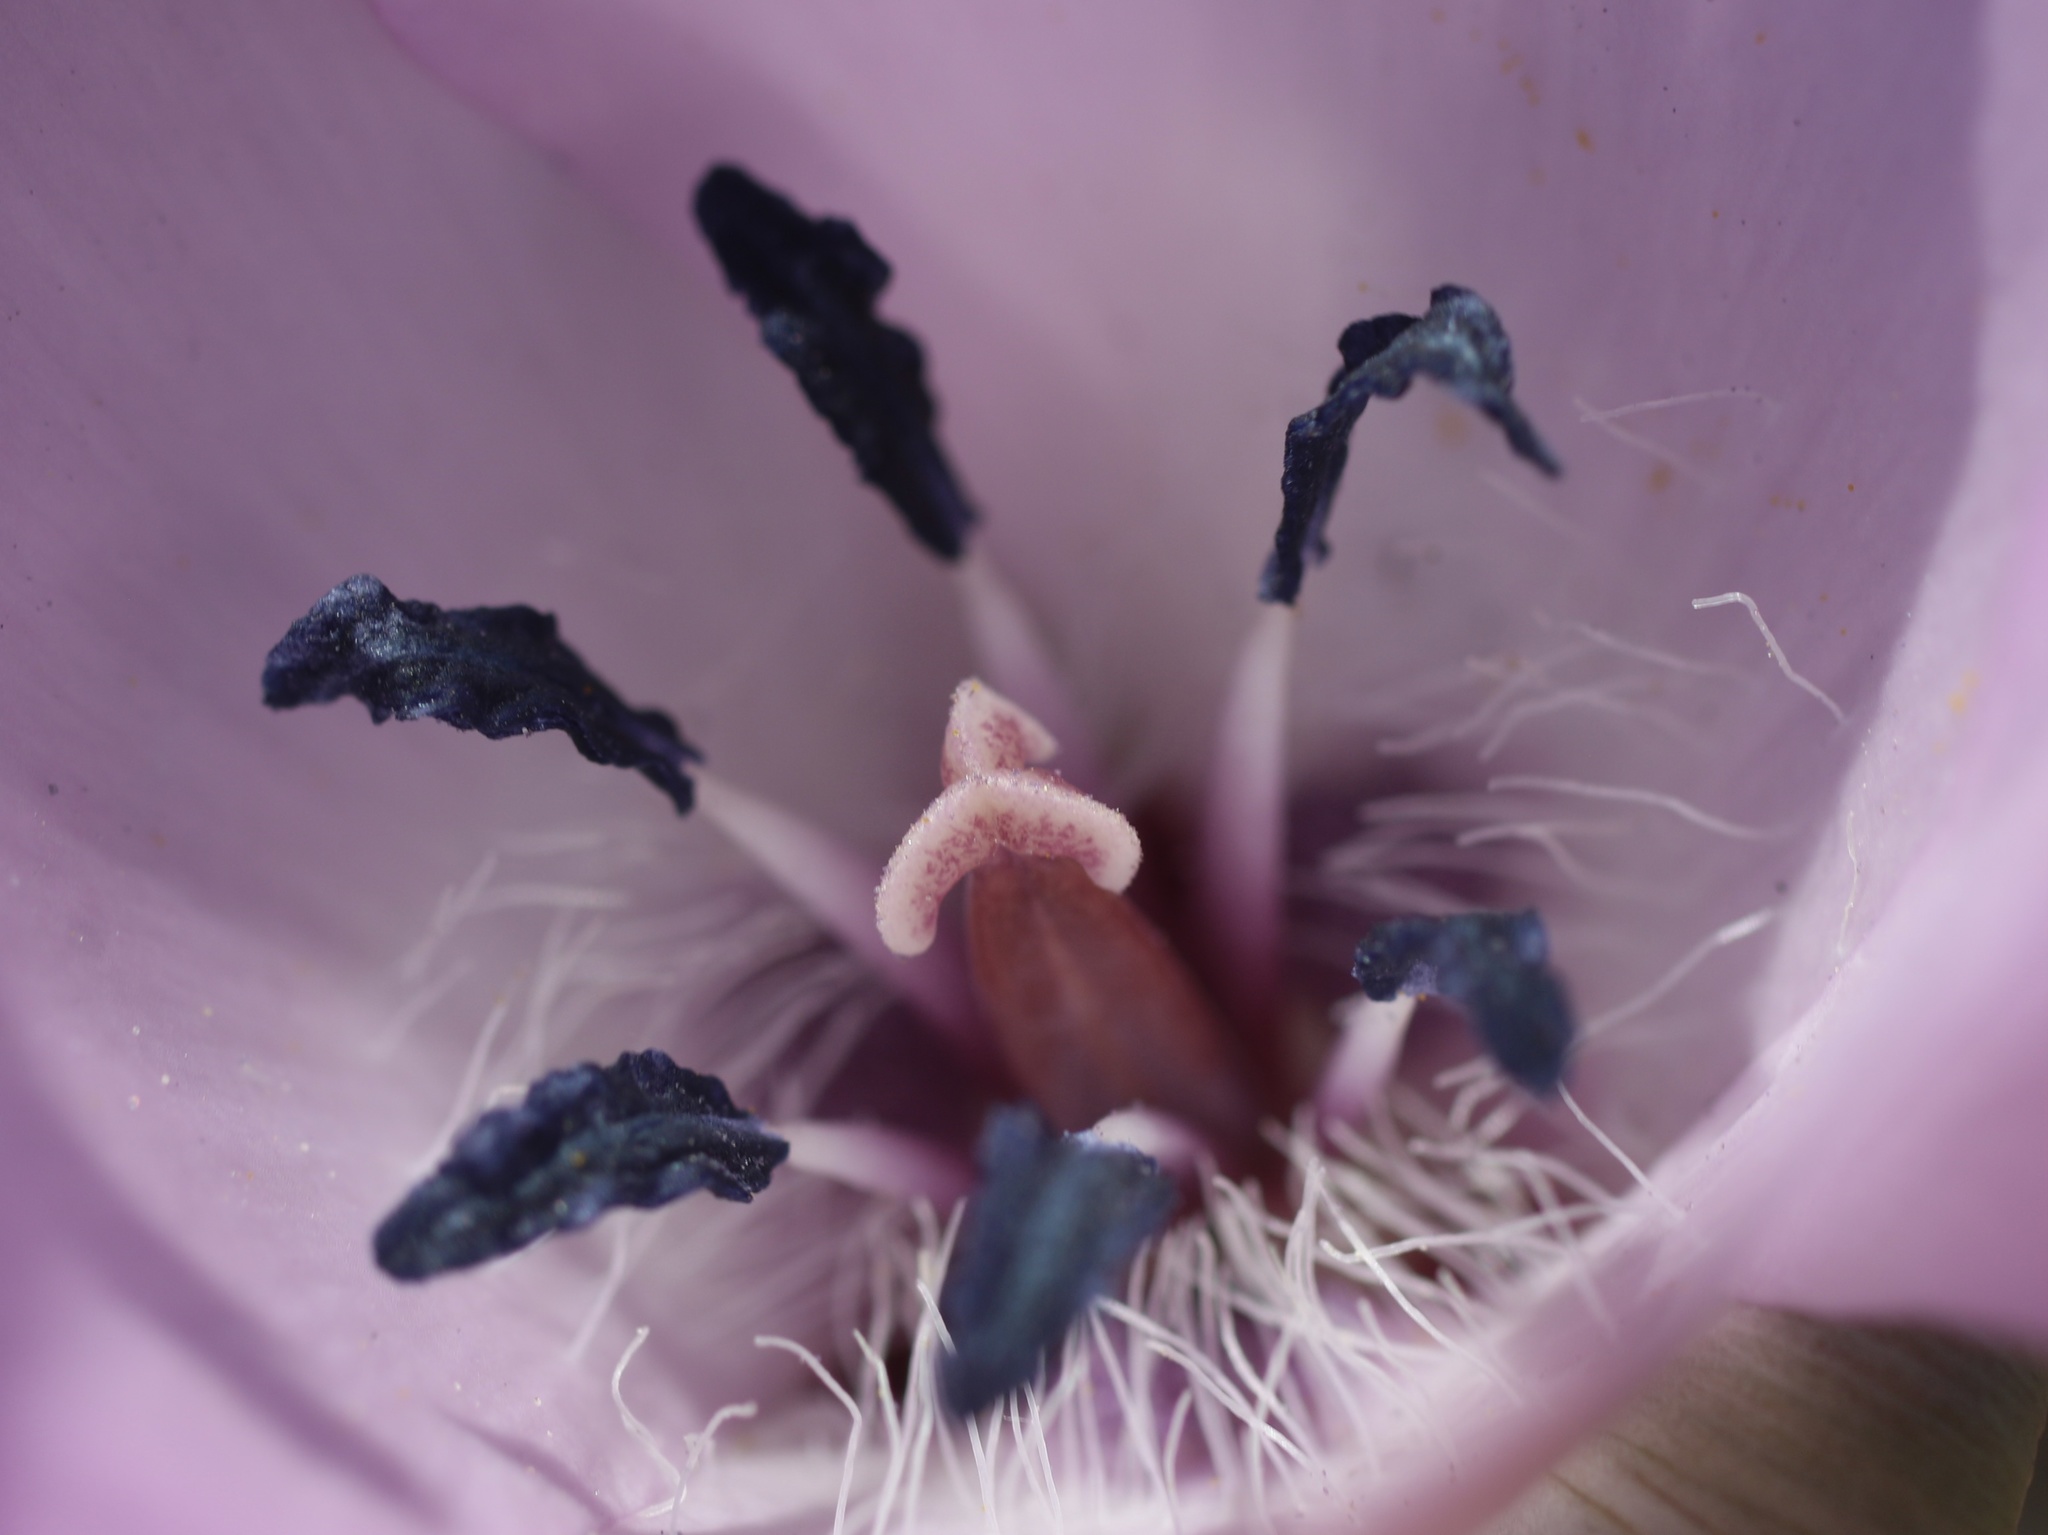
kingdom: Plantae
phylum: Tracheophyta
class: Liliopsida
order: Liliales
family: Liliaceae
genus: Calochortus
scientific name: Calochortus splendens
